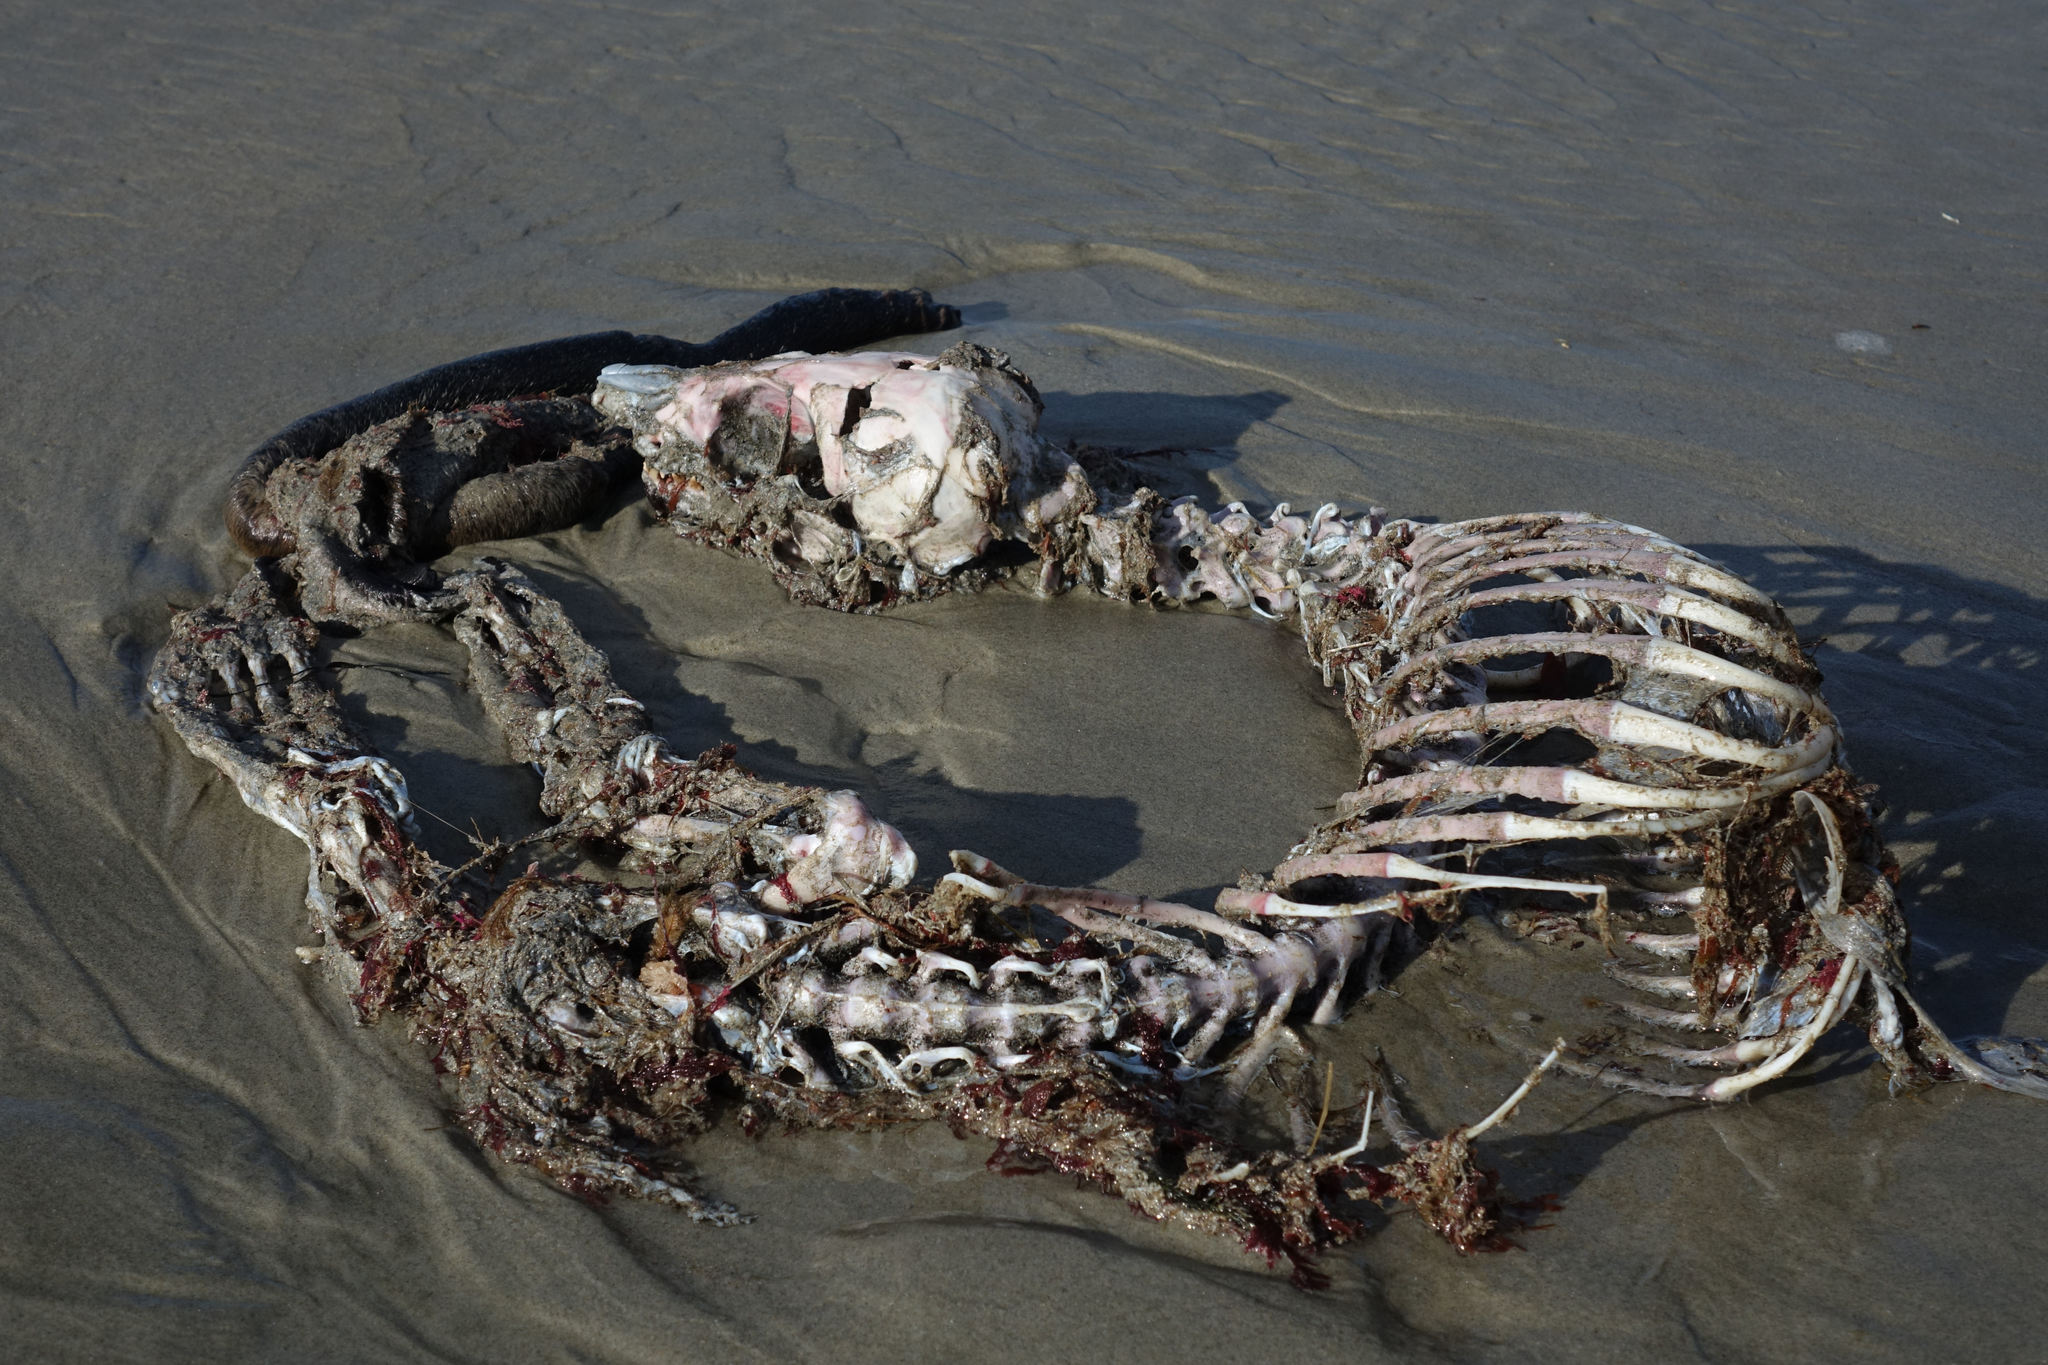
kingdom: Animalia
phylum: Chordata
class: Mammalia
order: Carnivora
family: Otariidae
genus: Arctocephalus
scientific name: Arctocephalus forsteri
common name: New zealand fur seal
